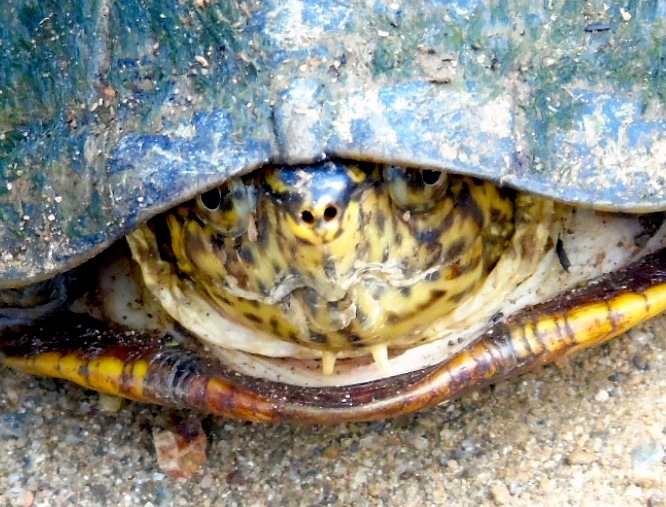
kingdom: Animalia
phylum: Chordata
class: Testudines
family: Kinosternidae
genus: Kinosternon
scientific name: Kinosternon integrum
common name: Mexican mud turtle
